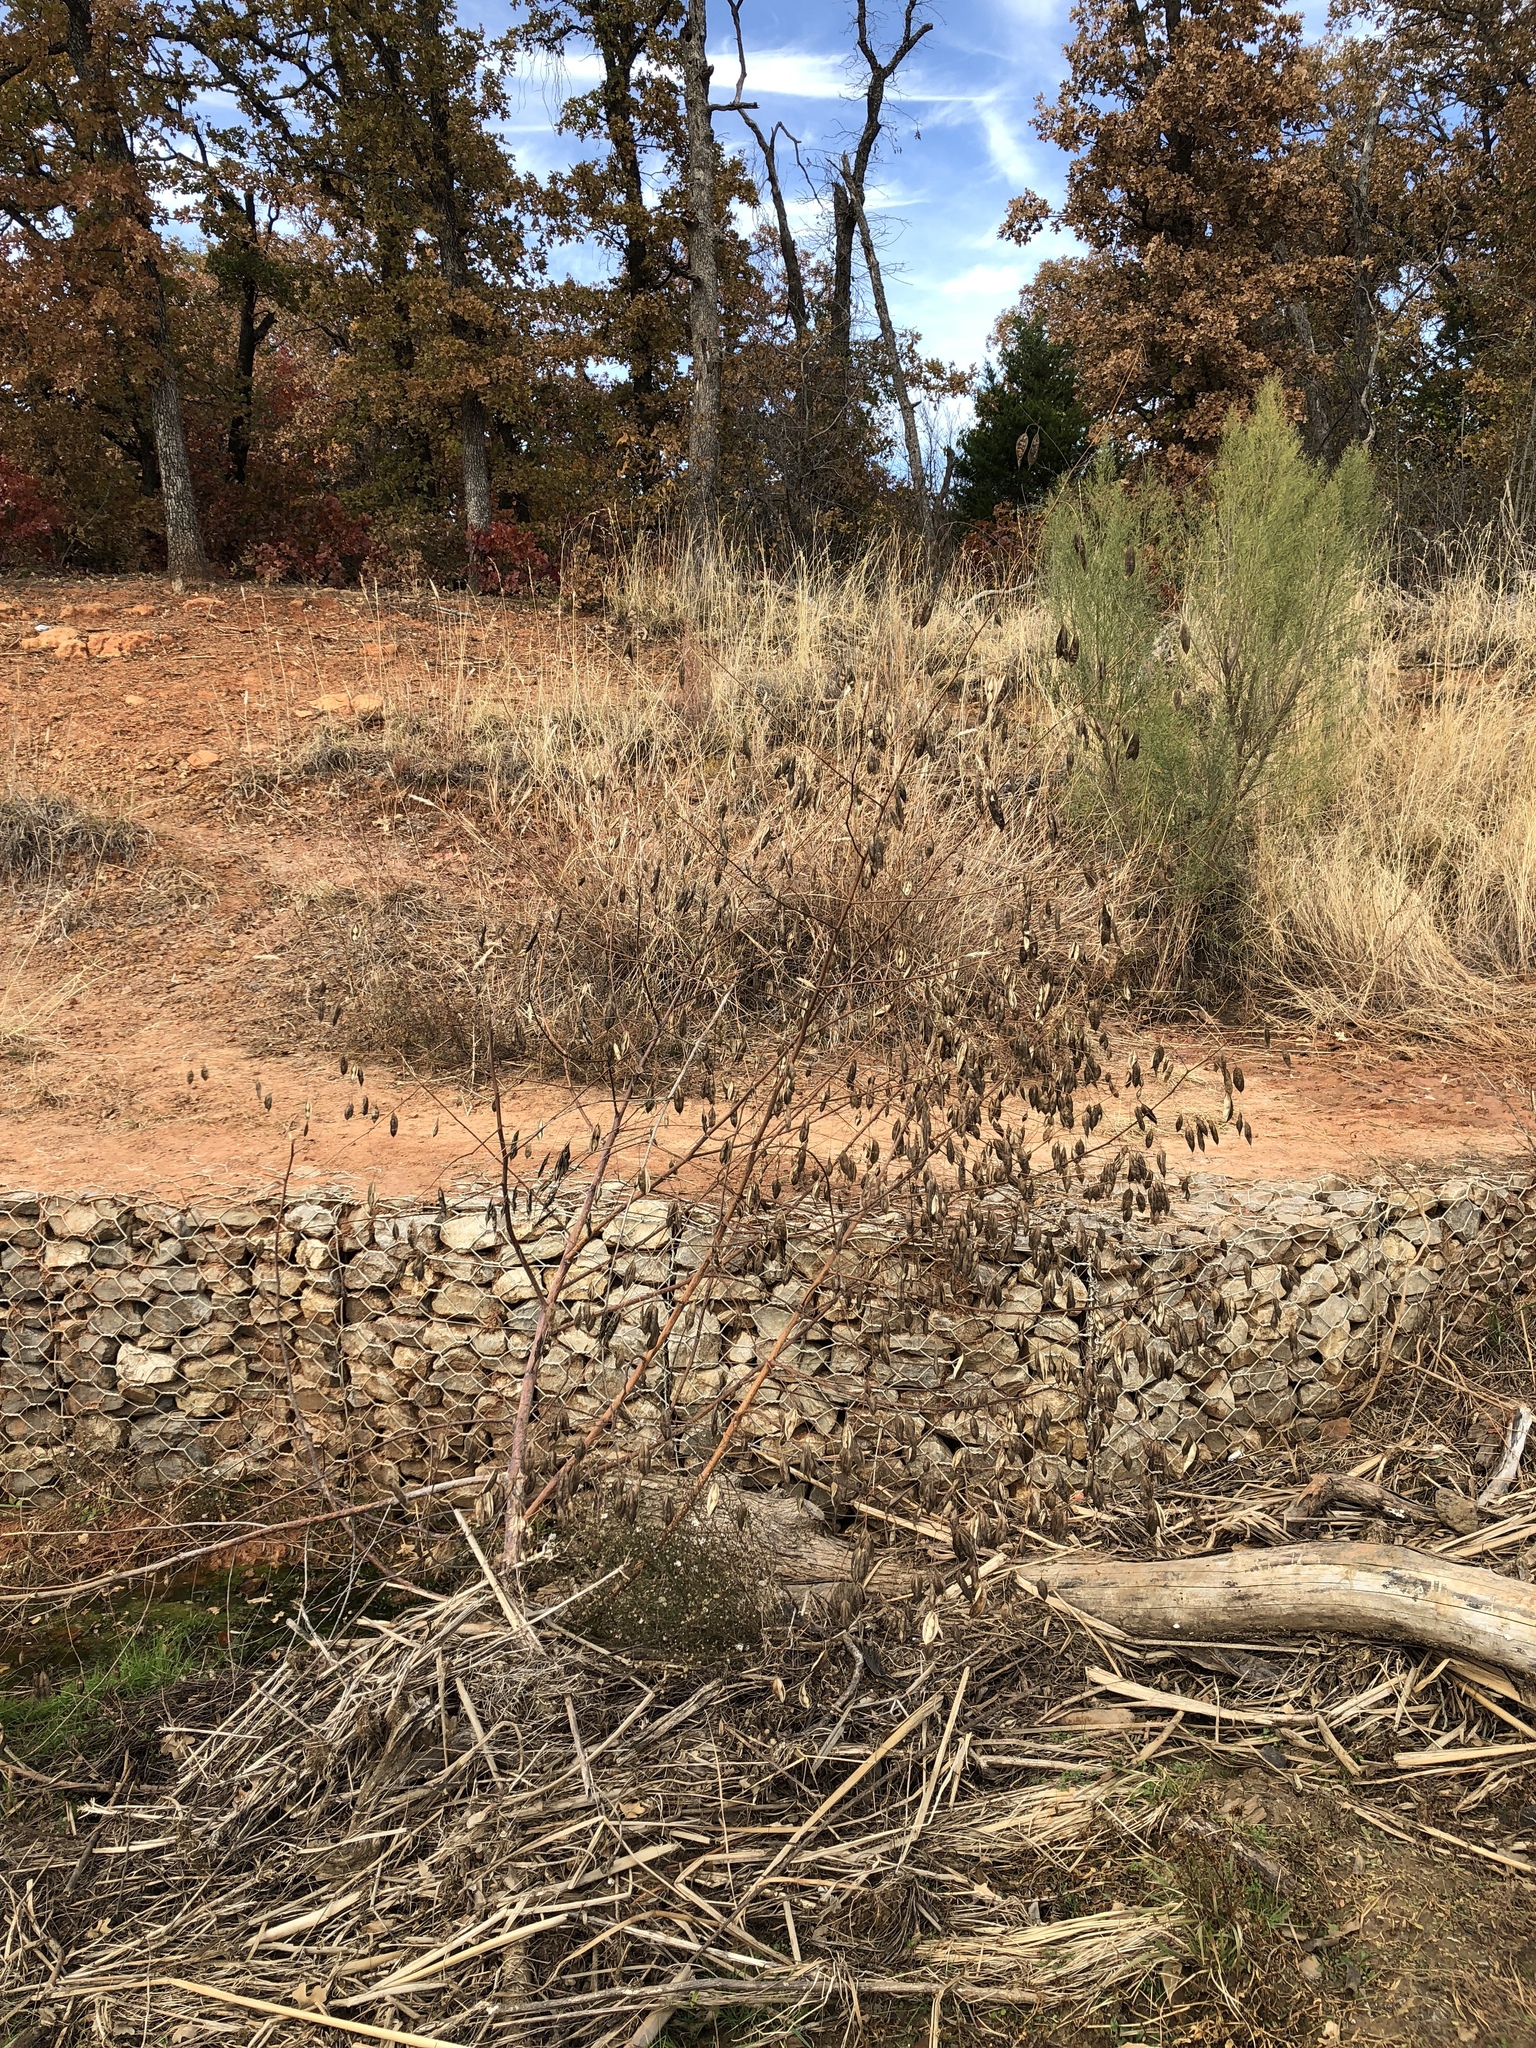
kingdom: Plantae
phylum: Tracheophyta
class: Magnoliopsida
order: Fabales
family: Fabaceae
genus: Sesbania
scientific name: Sesbania vesicaria
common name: Bagpod
